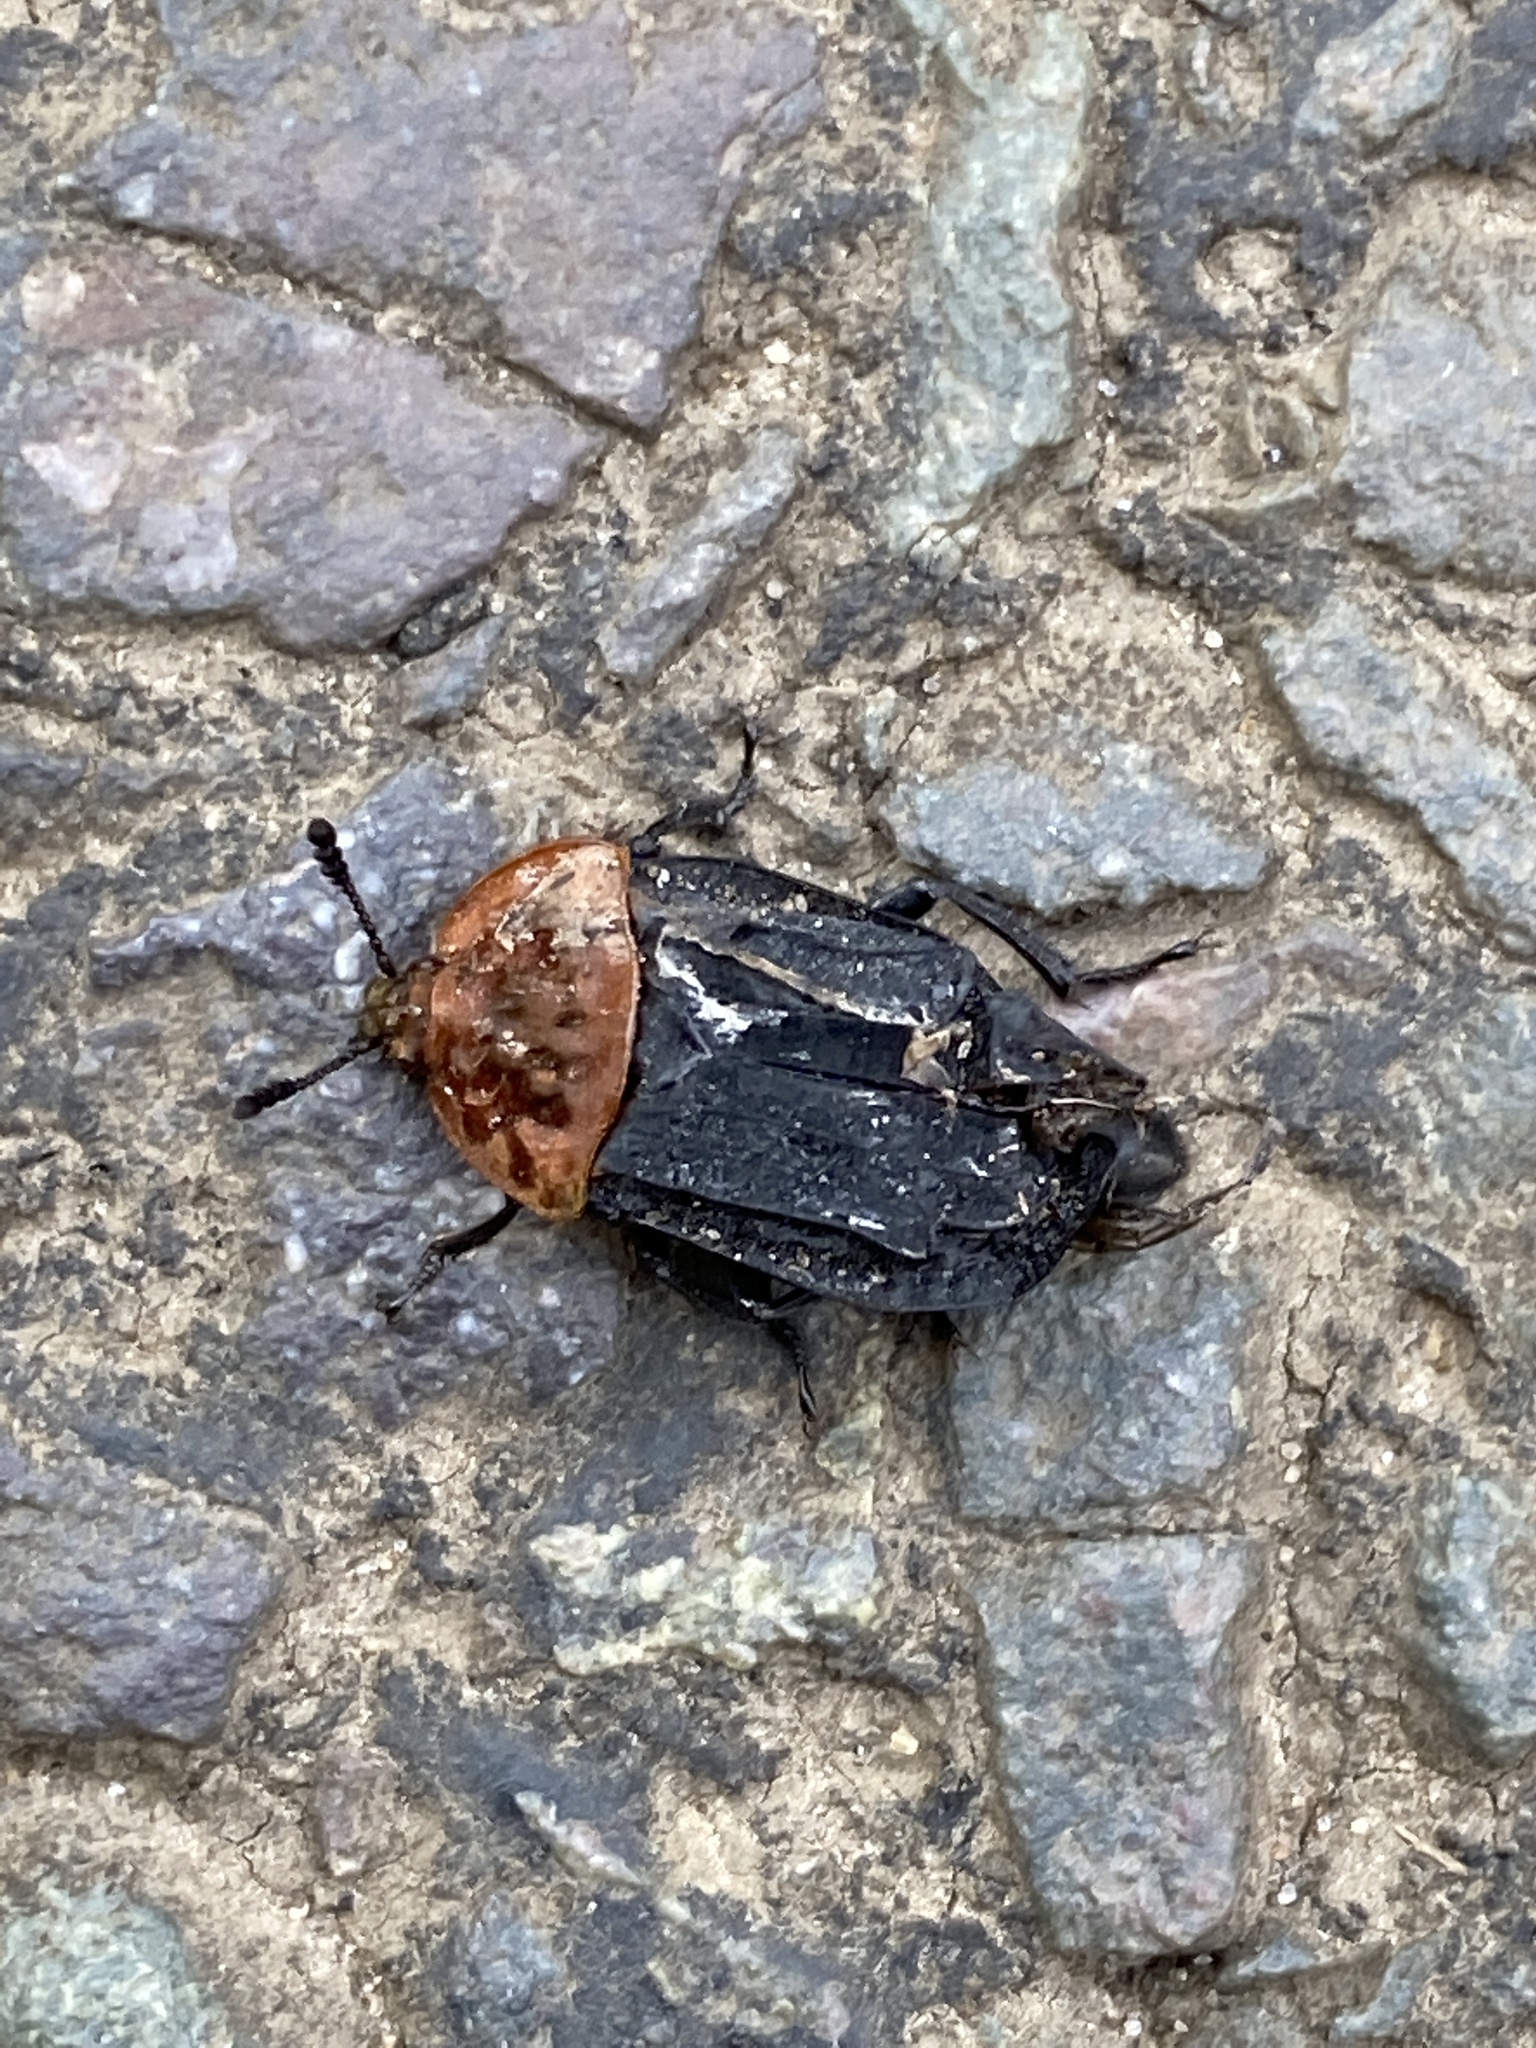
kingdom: Animalia
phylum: Arthropoda
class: Insecta
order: Coleoptera
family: Staphylinidae
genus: Oiceoptoma
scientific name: Oiceoptoma thoracicum
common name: Red-breasted carrion beetle
